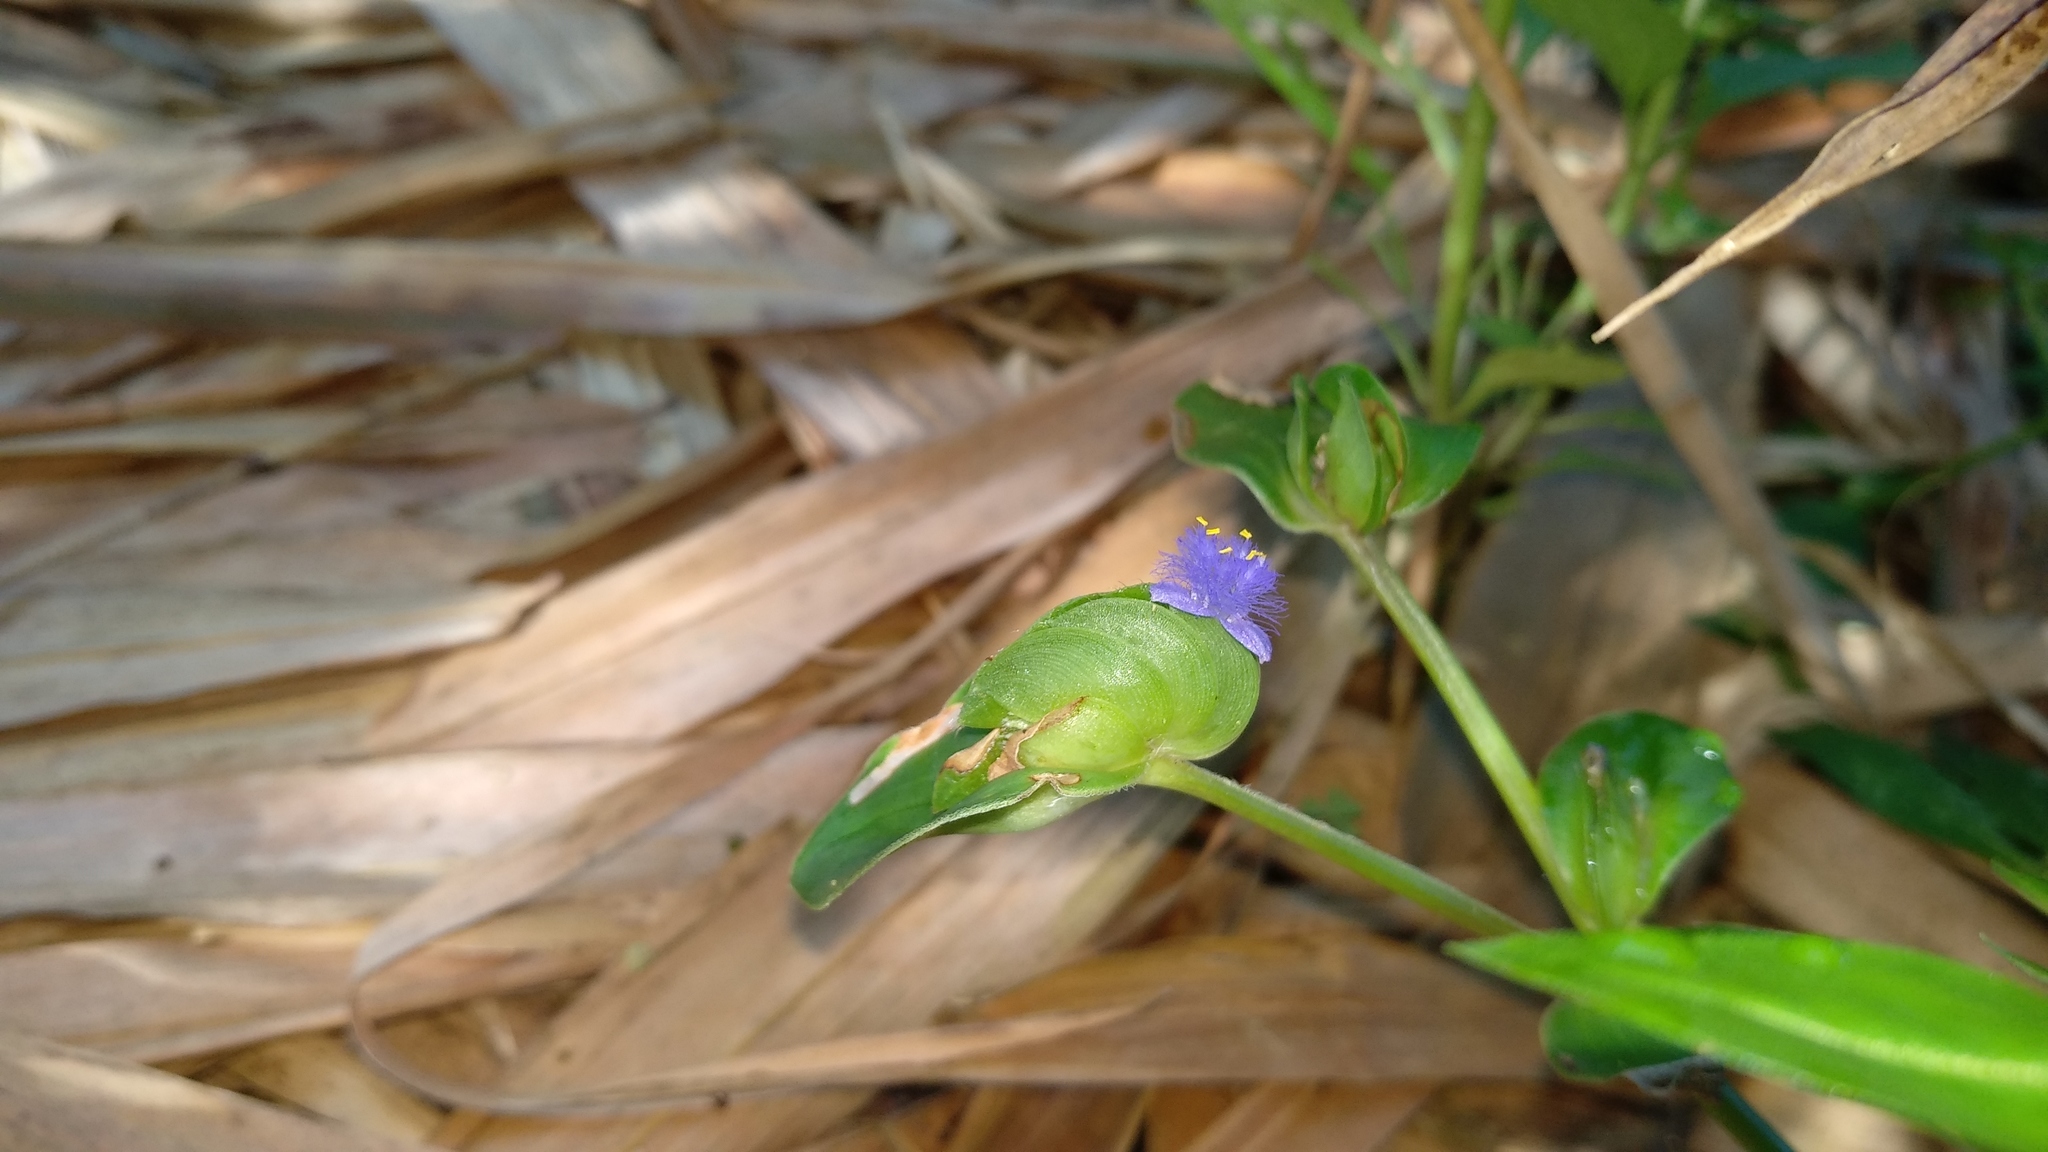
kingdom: Plantae
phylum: Tracheophyta
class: Liliopsida
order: Commelinales
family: Commelinaceae
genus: Cyanotis
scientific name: Cyanotis cristata
